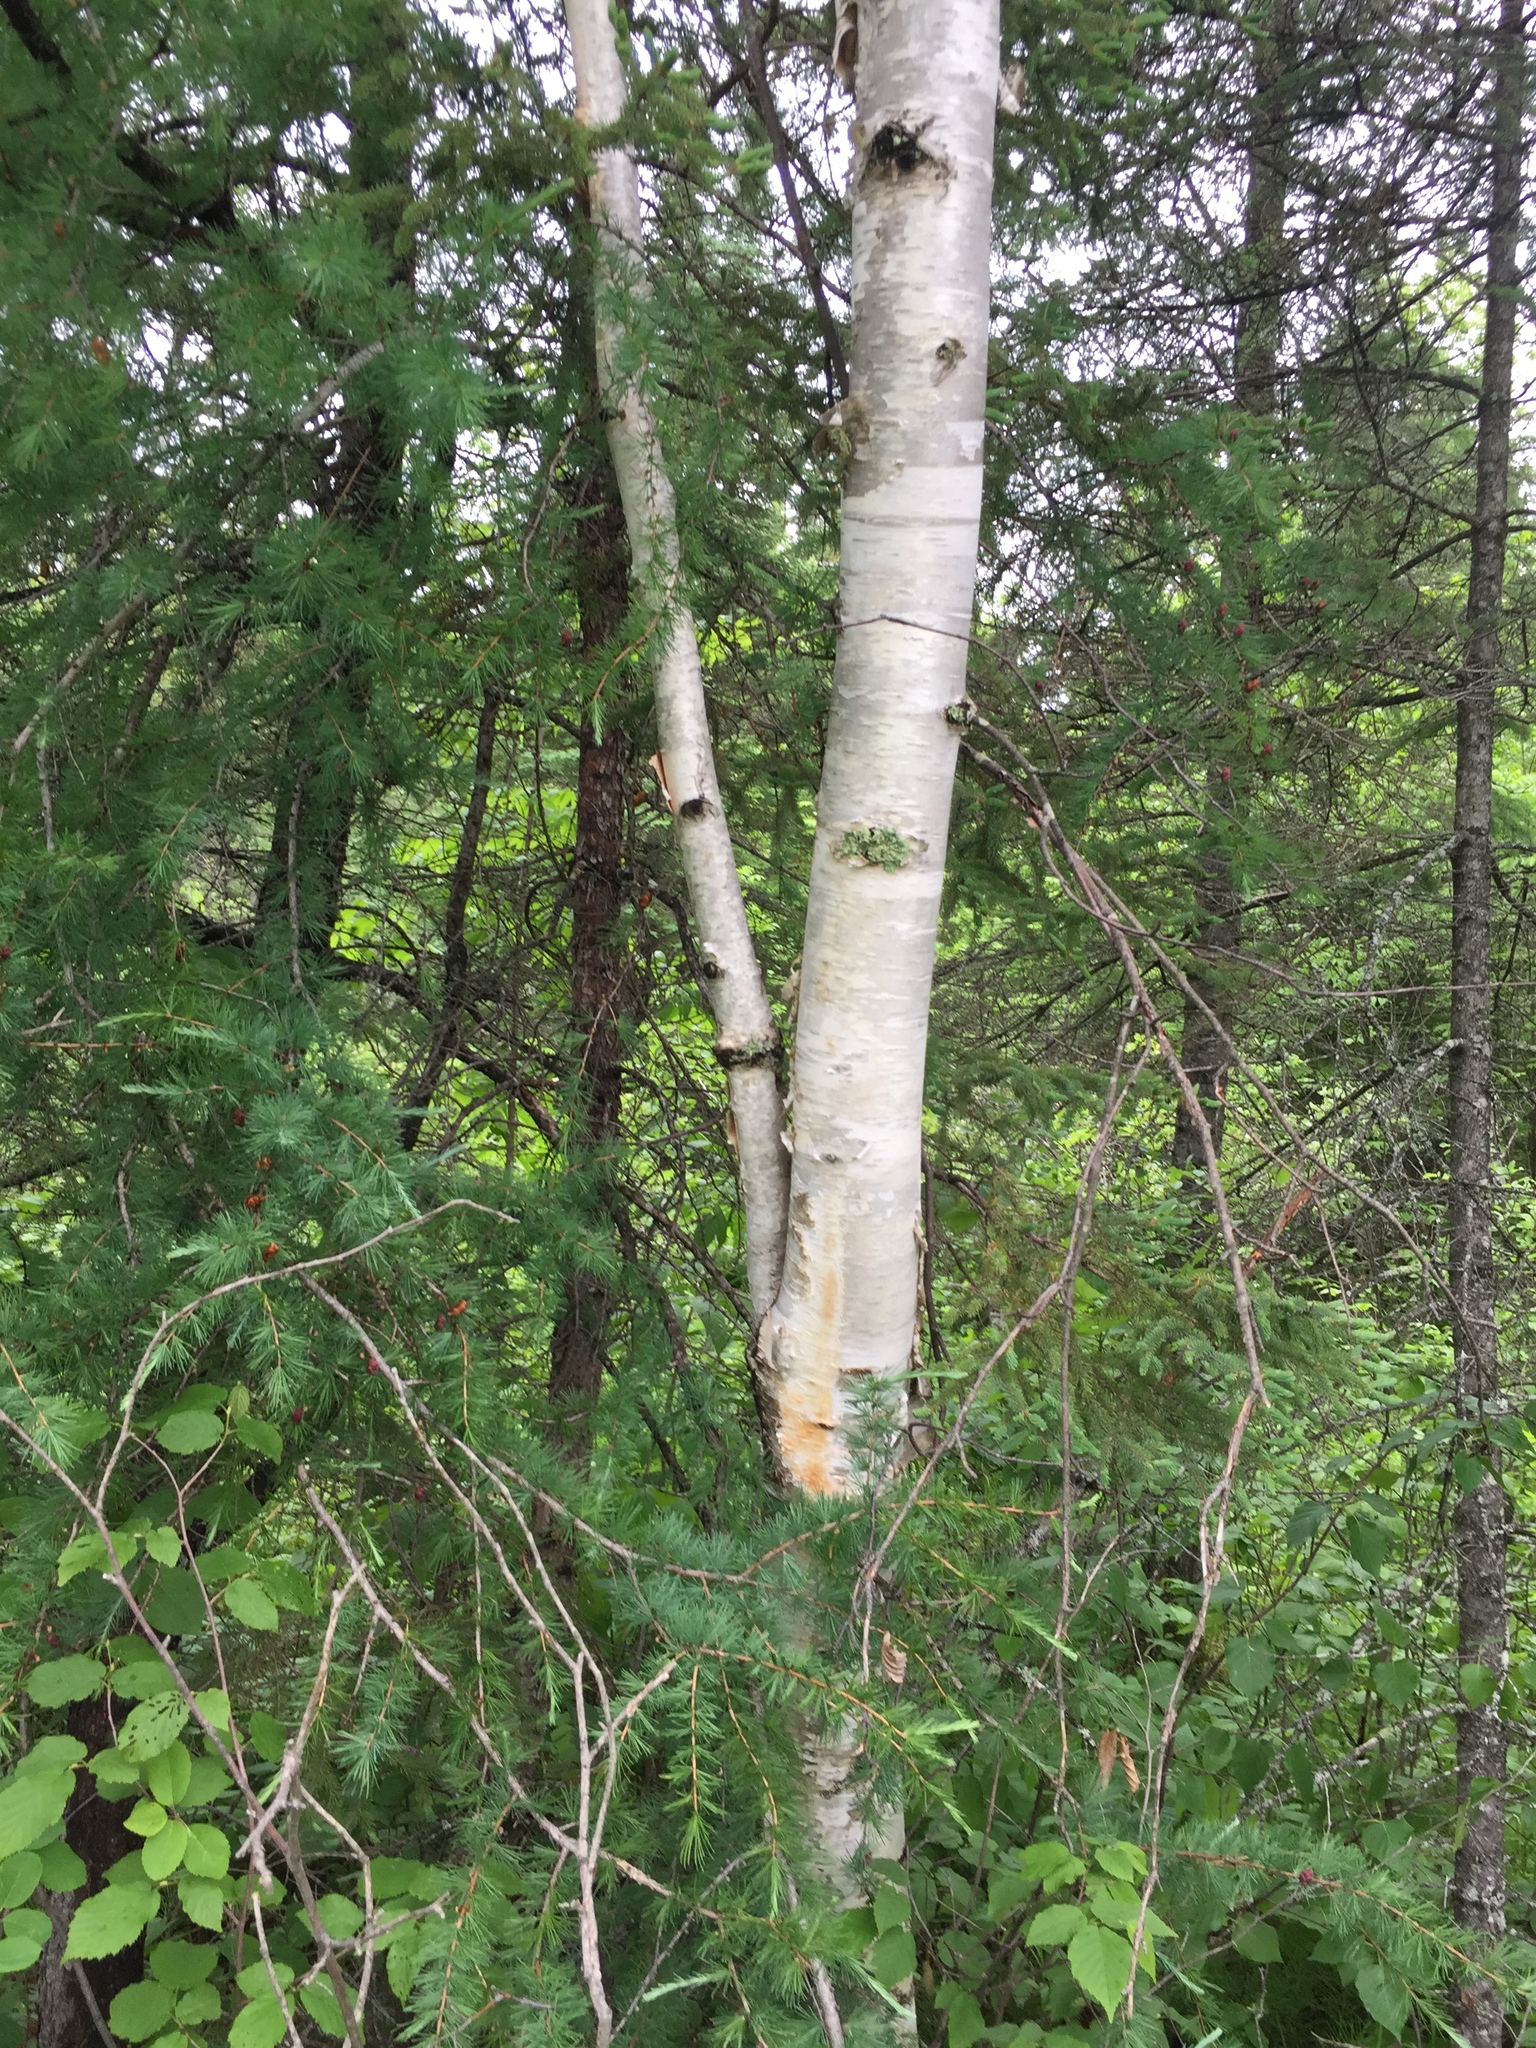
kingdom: Plantae
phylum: Tracheophyta
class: Magnoliopsida
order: Fagales
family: Betulaceae
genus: Betula
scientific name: Betula papyrifera
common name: Paper birch
